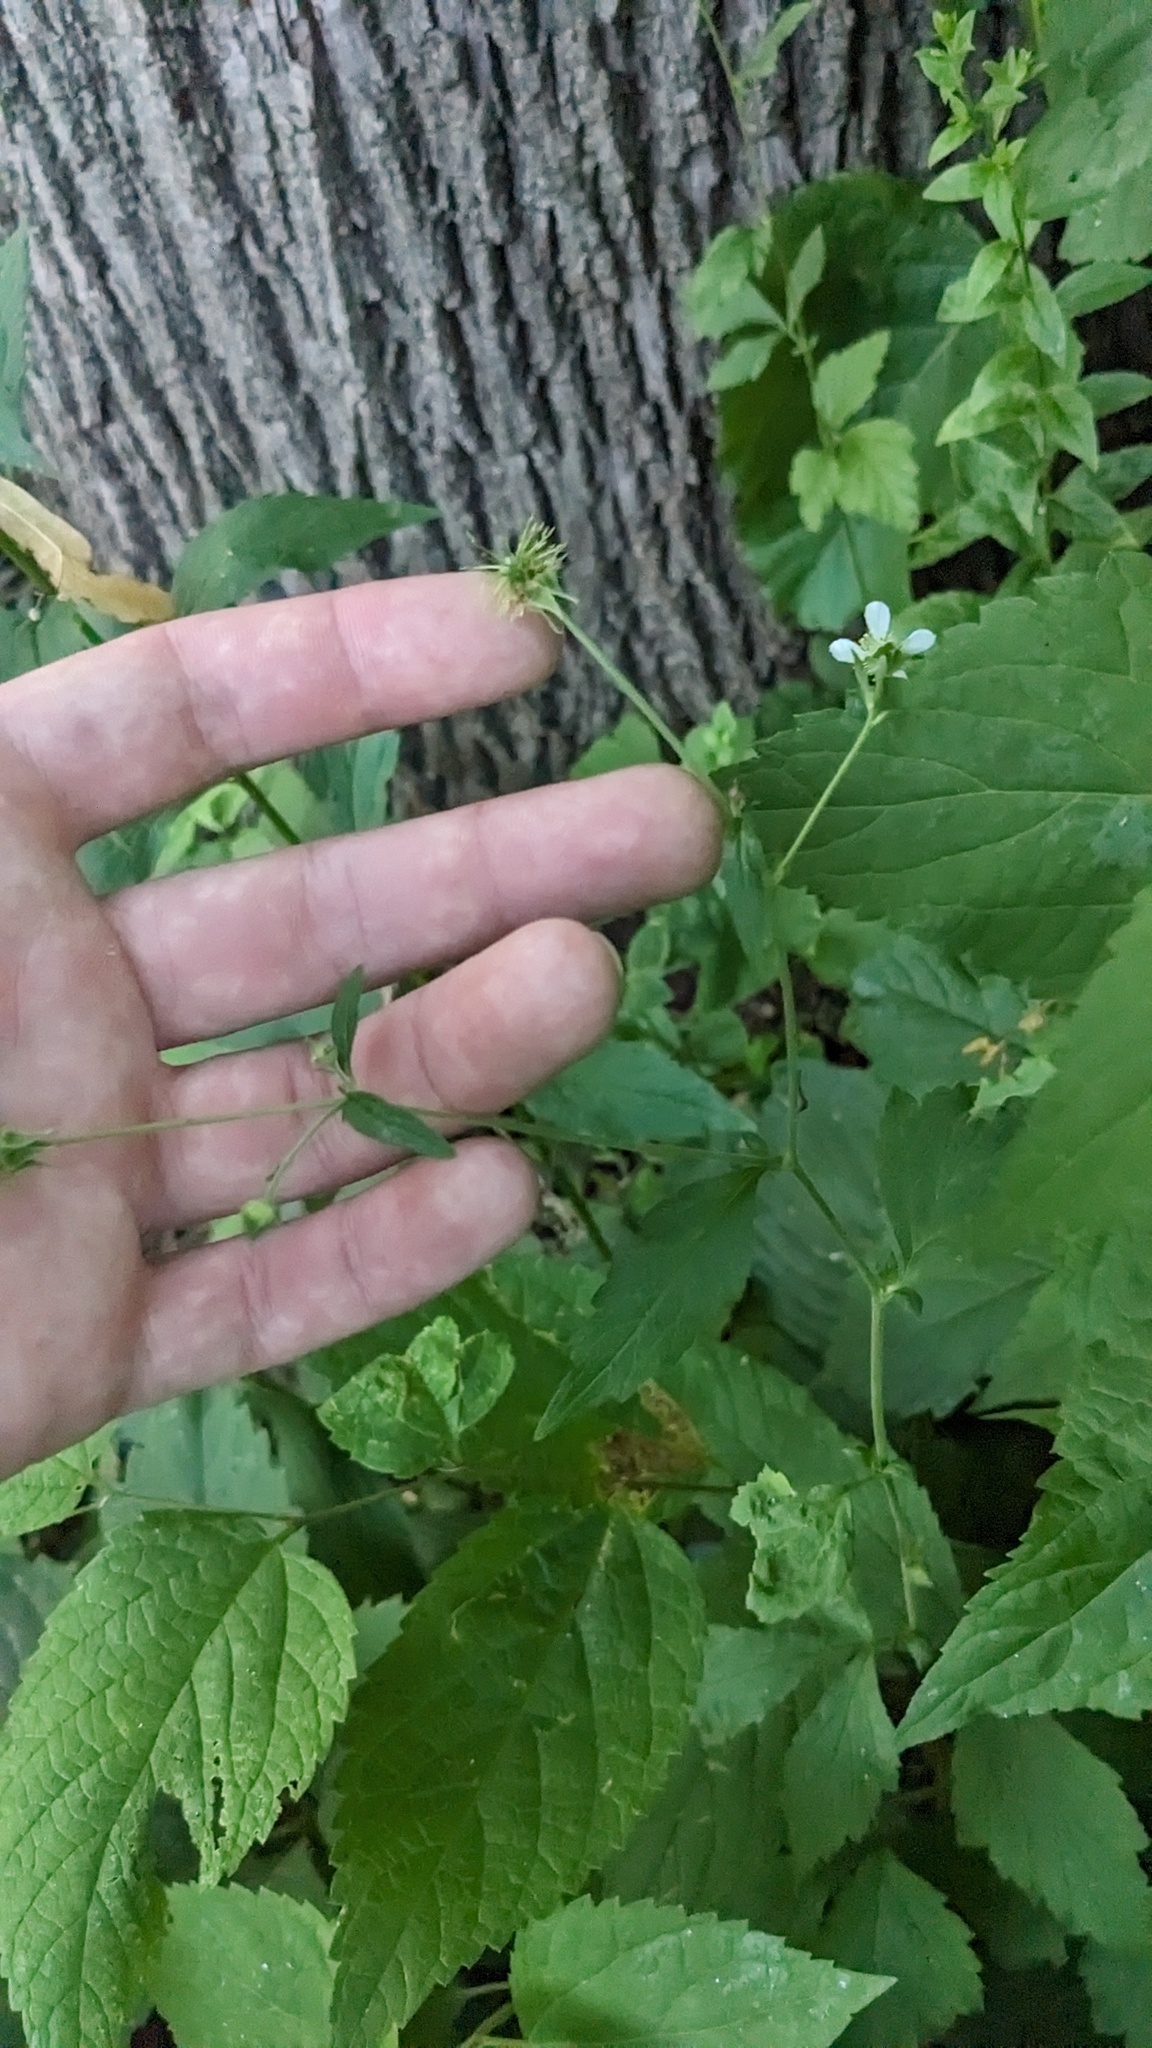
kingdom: Plantae
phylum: Tracheophyta
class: Magnoliopsida
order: Rosales
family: Rosaceae
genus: Geum
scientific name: Geum canadense
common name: White avens
